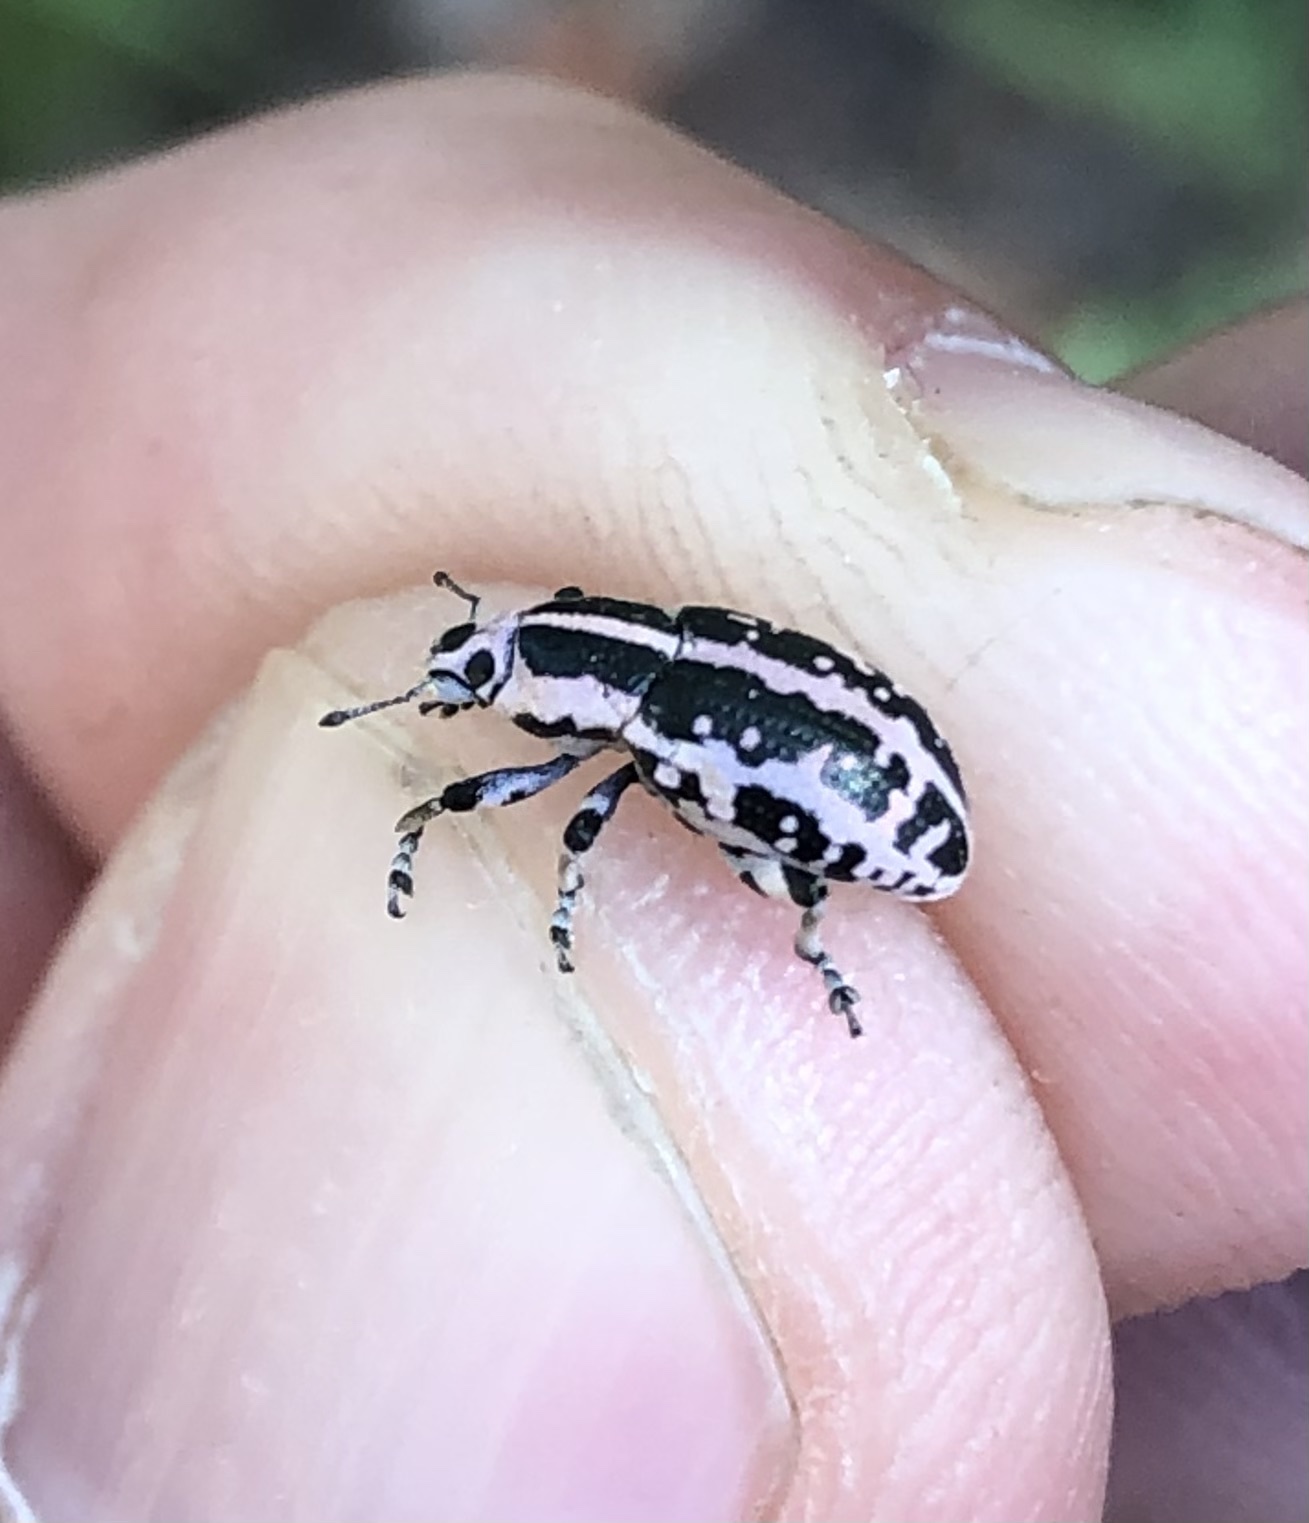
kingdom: Animalia
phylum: Arthropoda
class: Insecta
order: Coleoptera
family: Curculionidae
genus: Eudiagogus
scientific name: Eudiagogus rosenschoeldi
